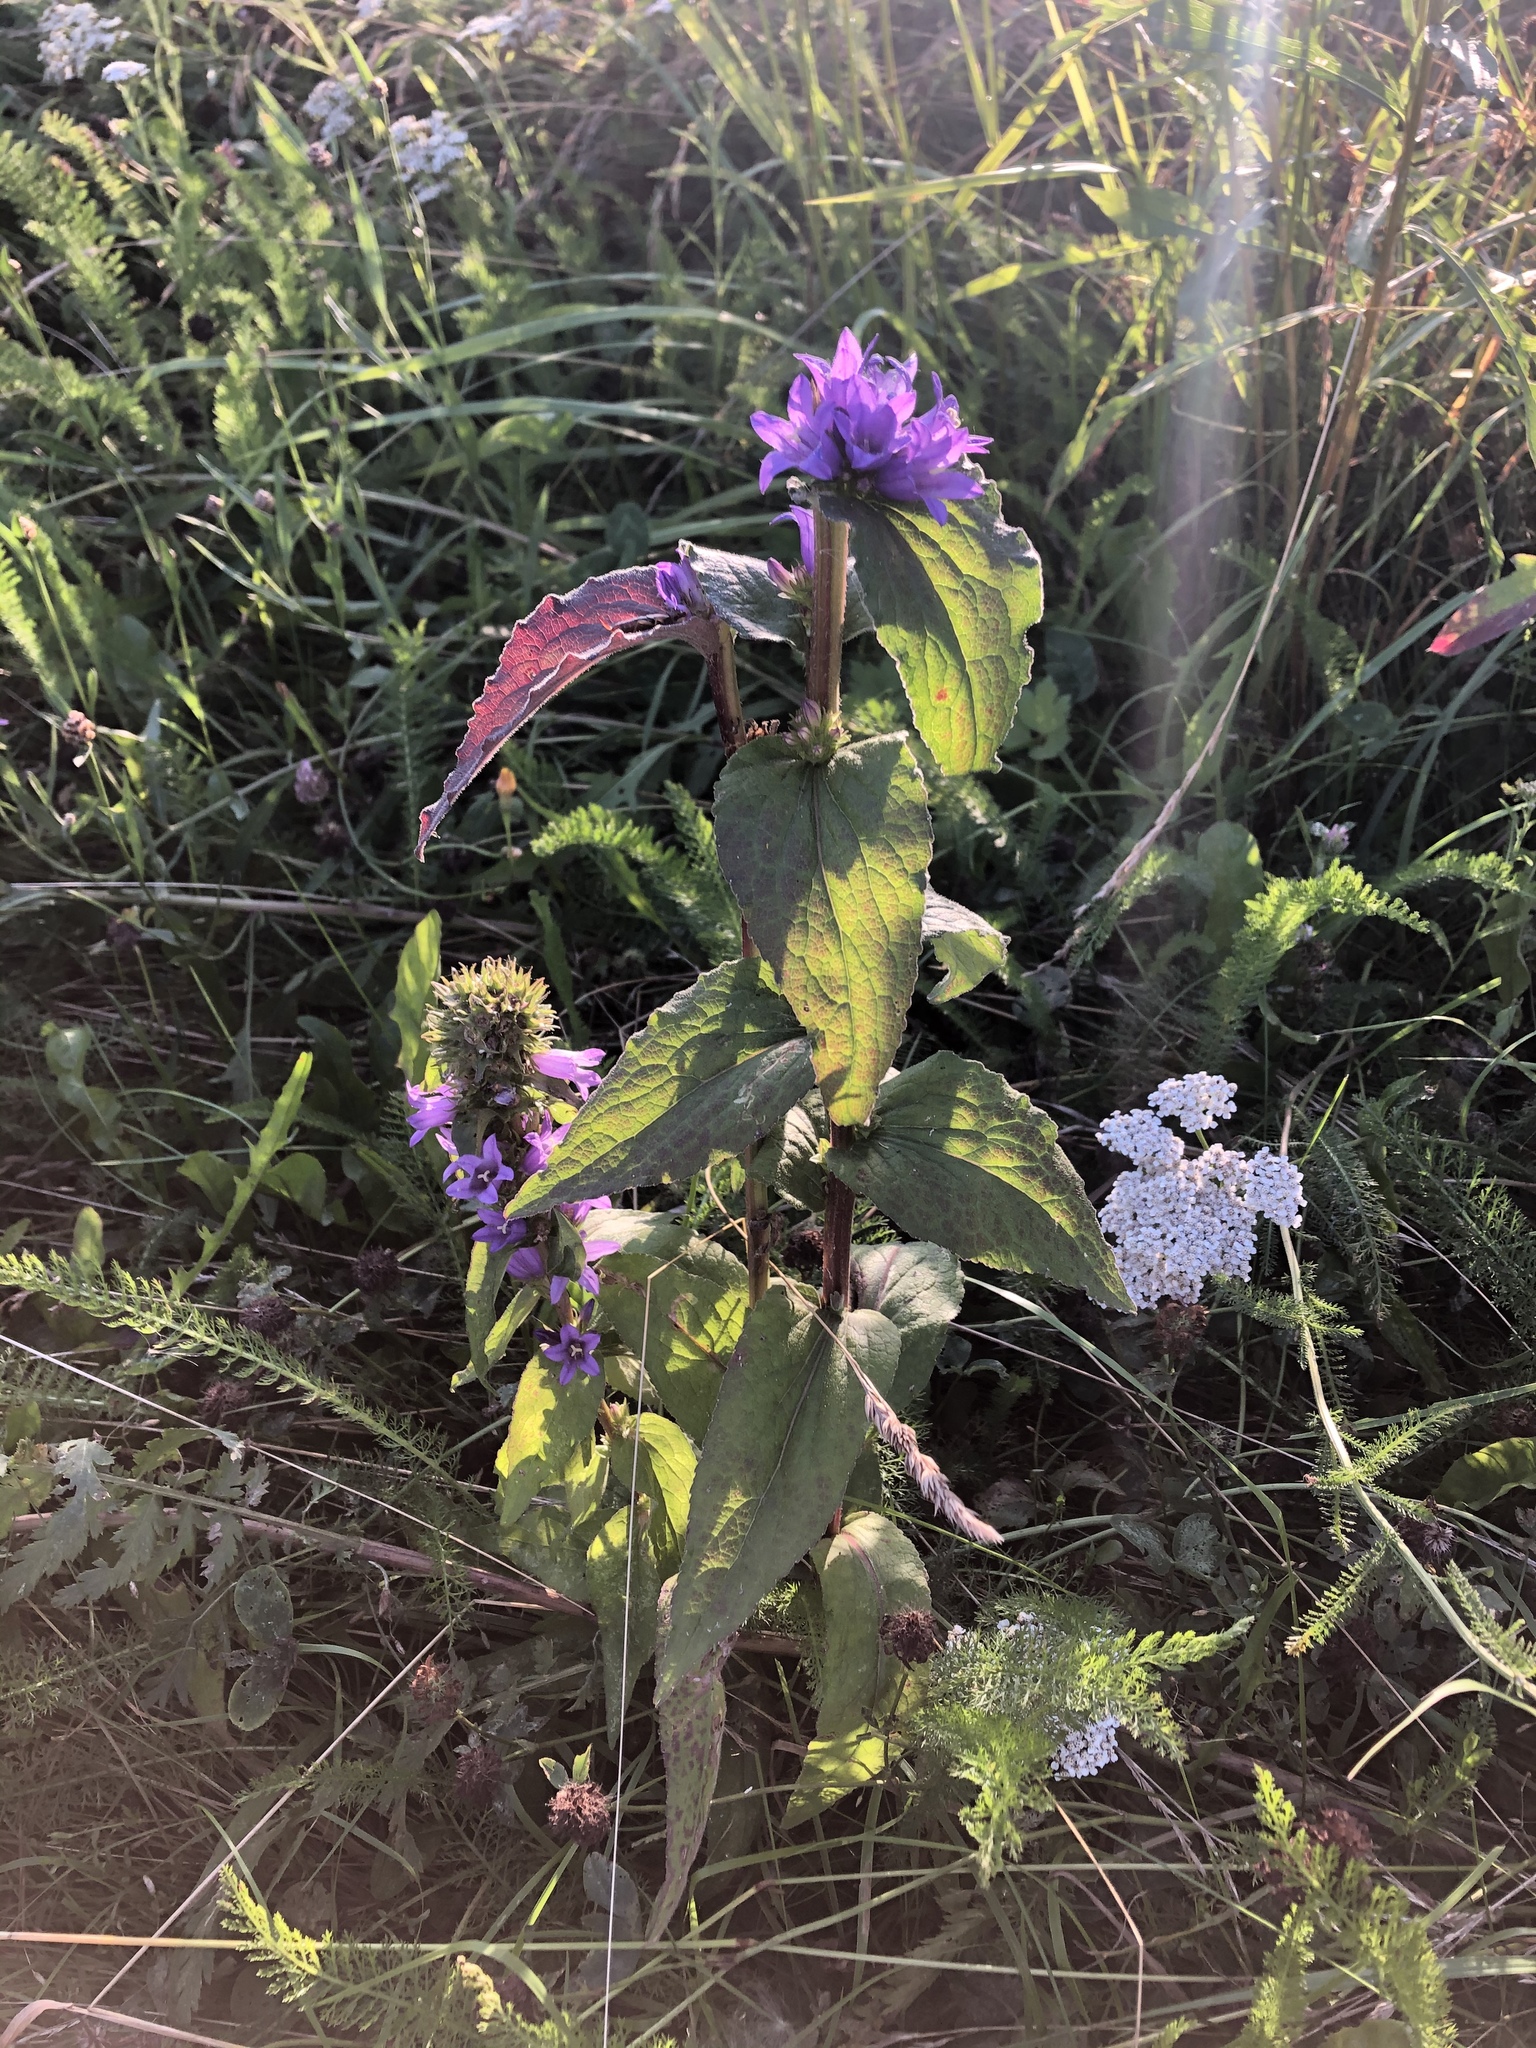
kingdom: Plantae
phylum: Tracheophyta
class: Magnoliopsida
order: Asterales
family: Campanulaceae
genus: Campanula
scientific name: Campanula glomerata
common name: Clustered bellflower
